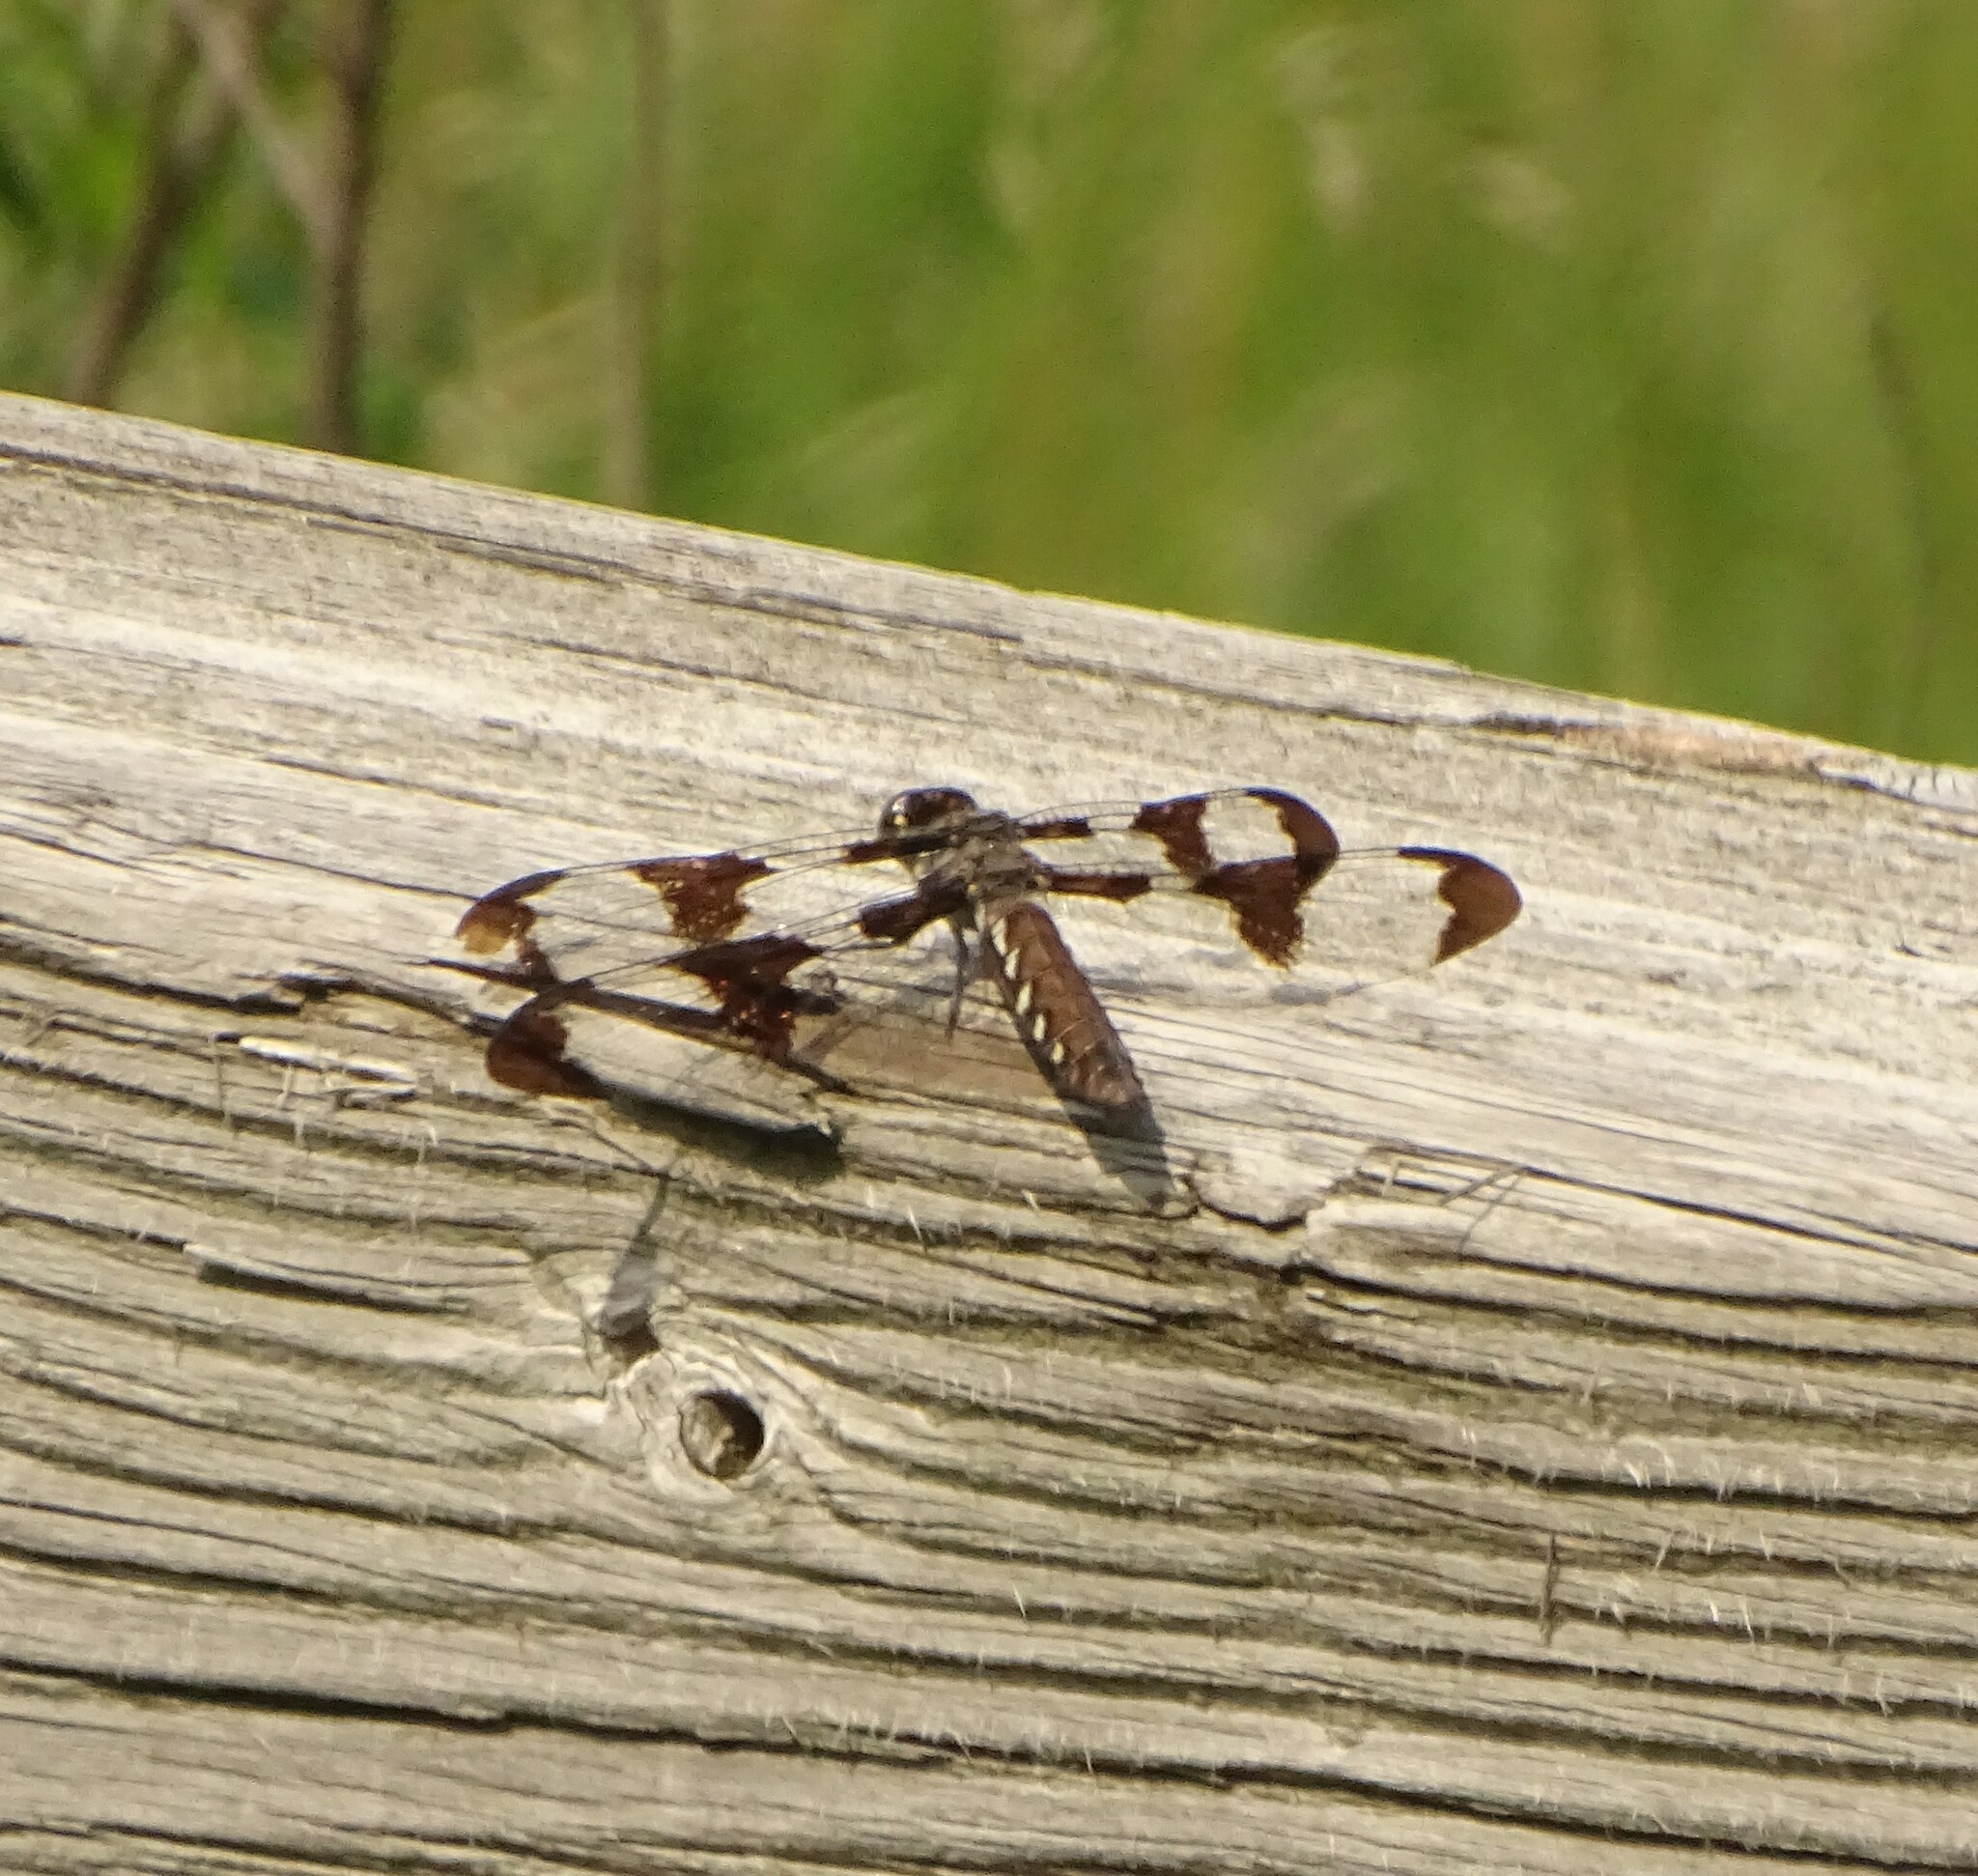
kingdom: Animalia
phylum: Arthropoda
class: Insecta
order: Odonata
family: Libellulidae
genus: Plathemis
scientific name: Plathemis lydia
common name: Common whitetail
